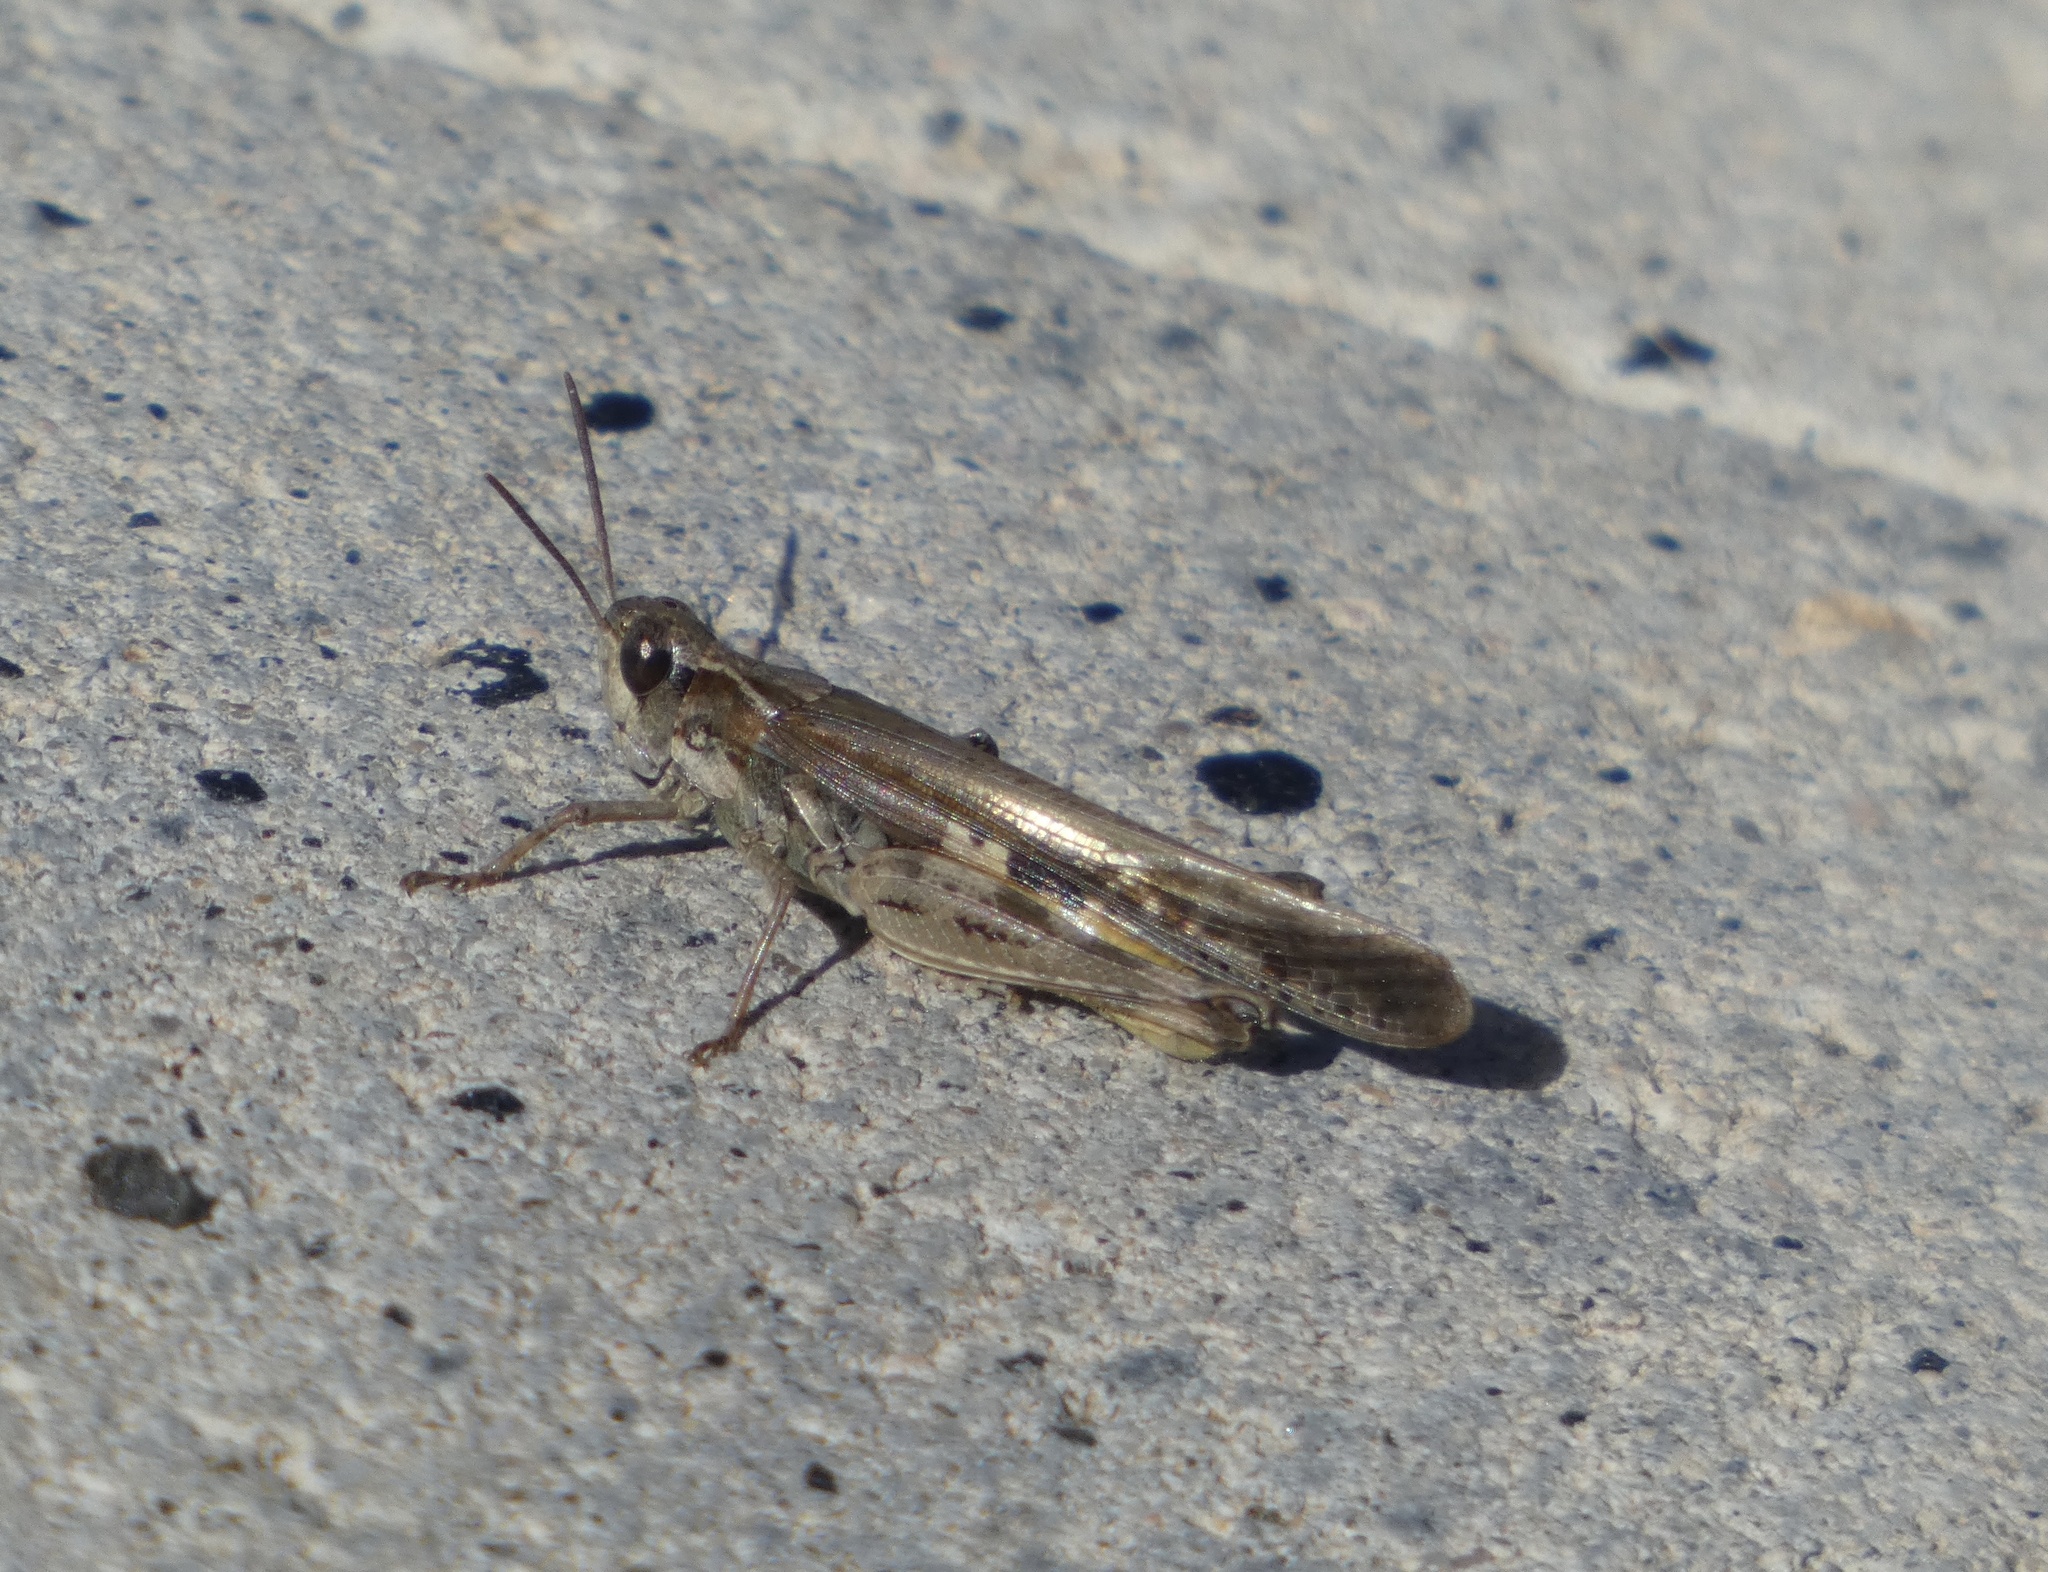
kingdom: Animalia
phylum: Arthropoda
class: Insecta
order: Orthoptera
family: Acrididae
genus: Aiolopus
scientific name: Aiolopus thalassinus
